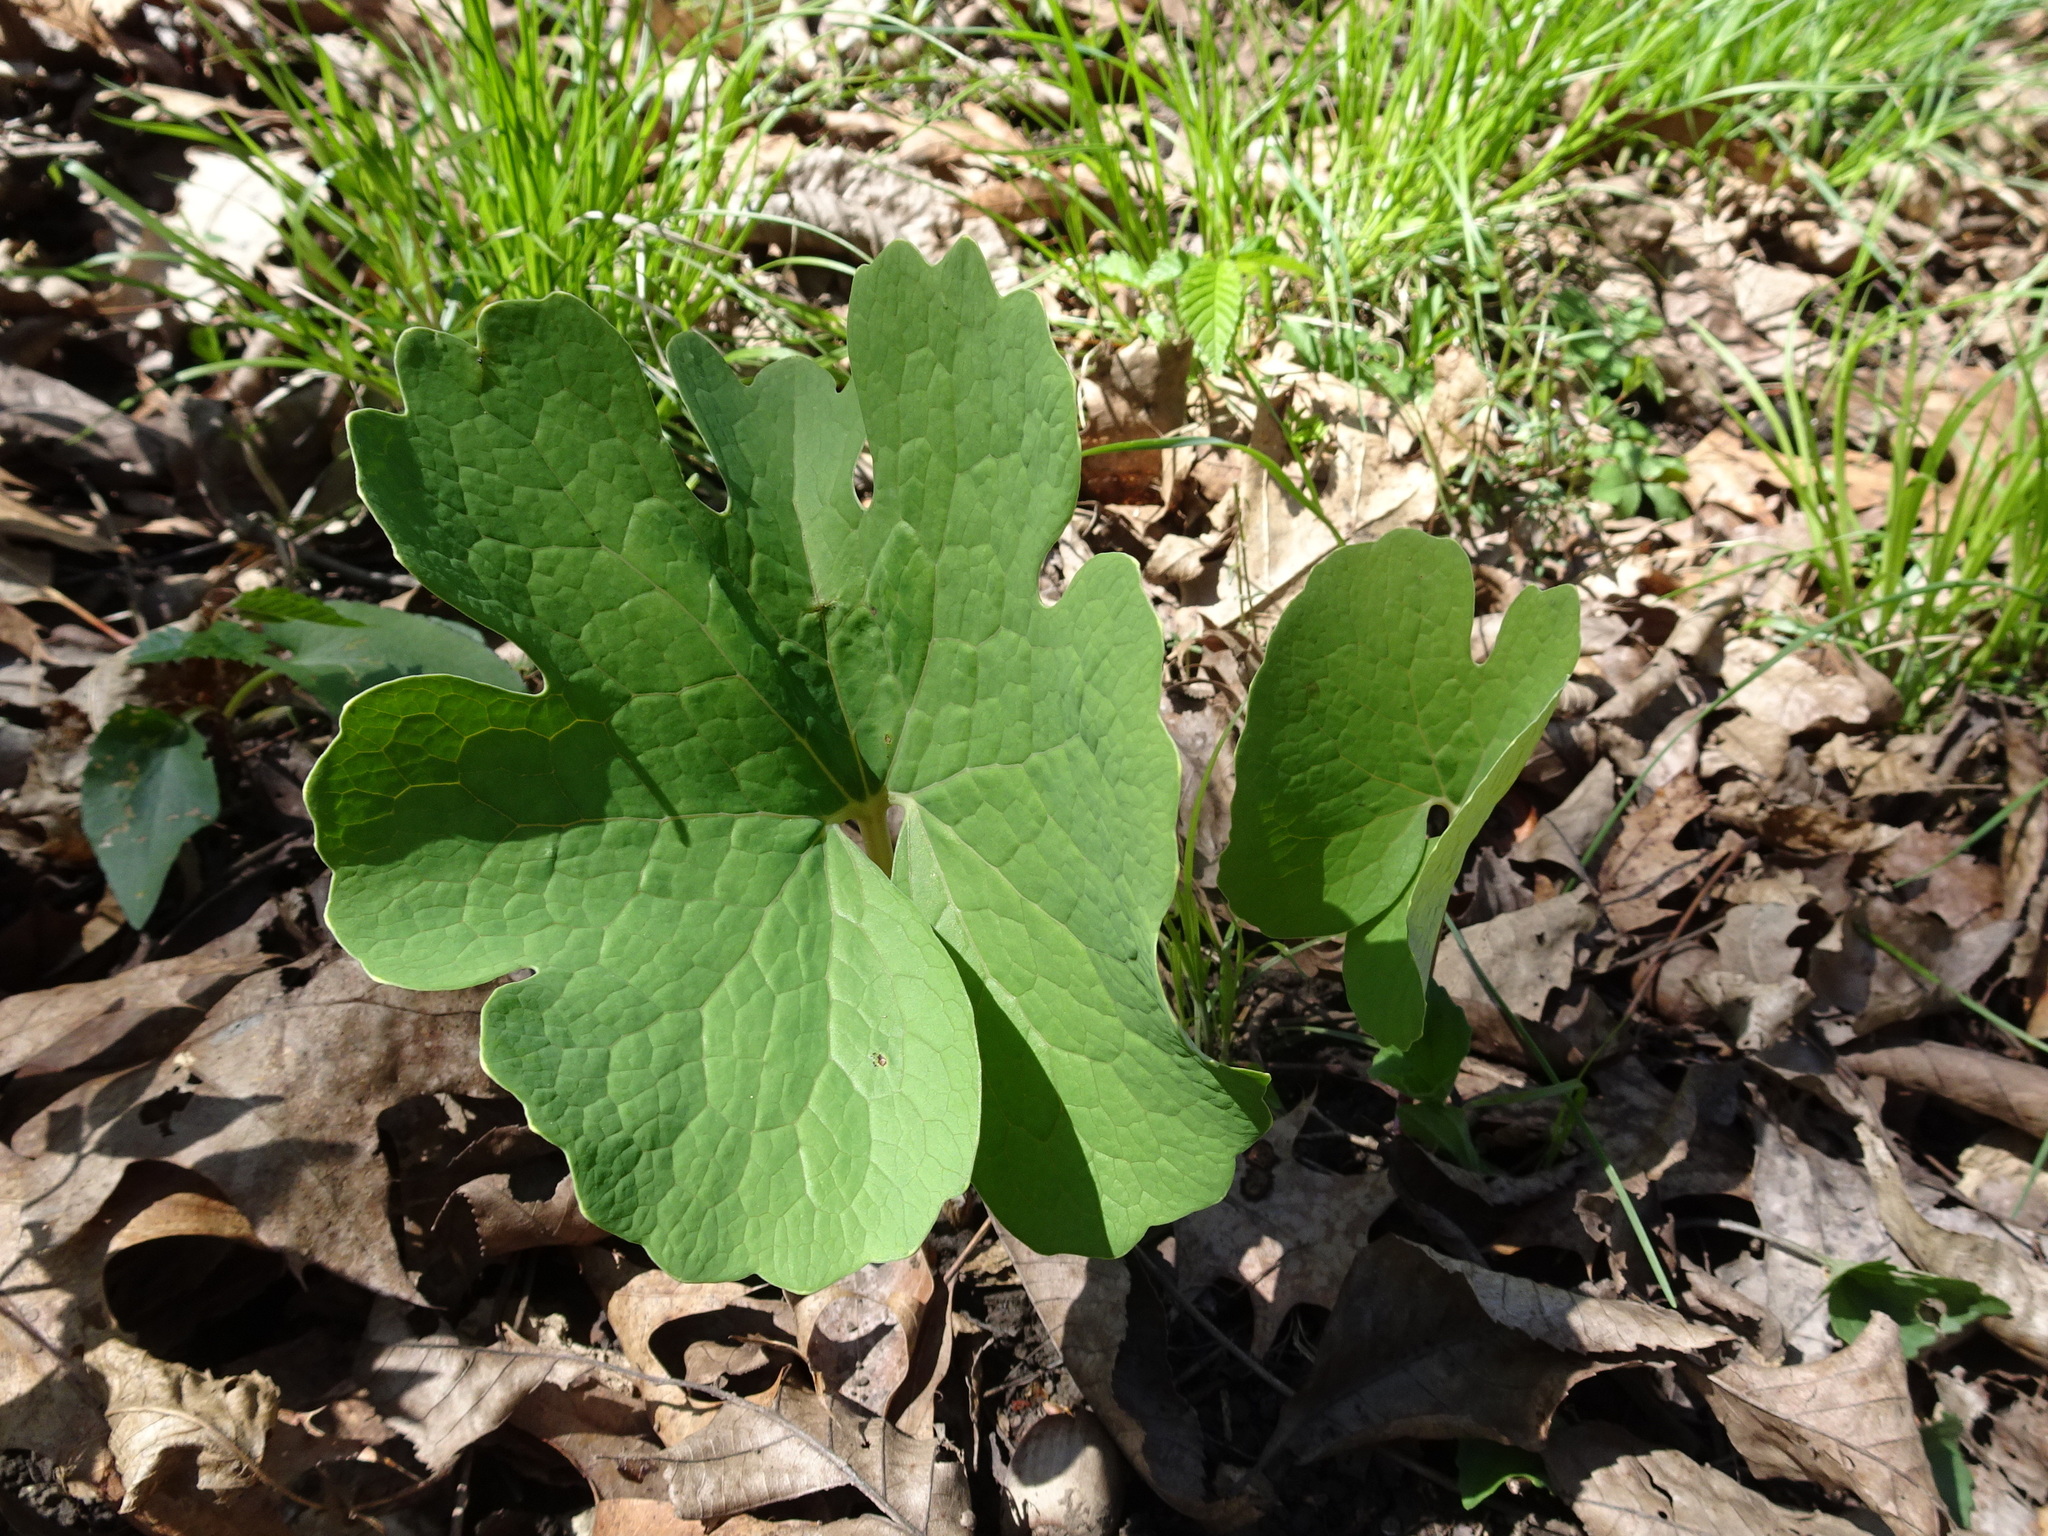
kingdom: Plantae
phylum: Tracheophyta
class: Magnoliopsida
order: Ranunculales
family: Papaveraceae
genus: Sanguinaria
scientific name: Sanguinaria canadensis
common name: Bloodroot
